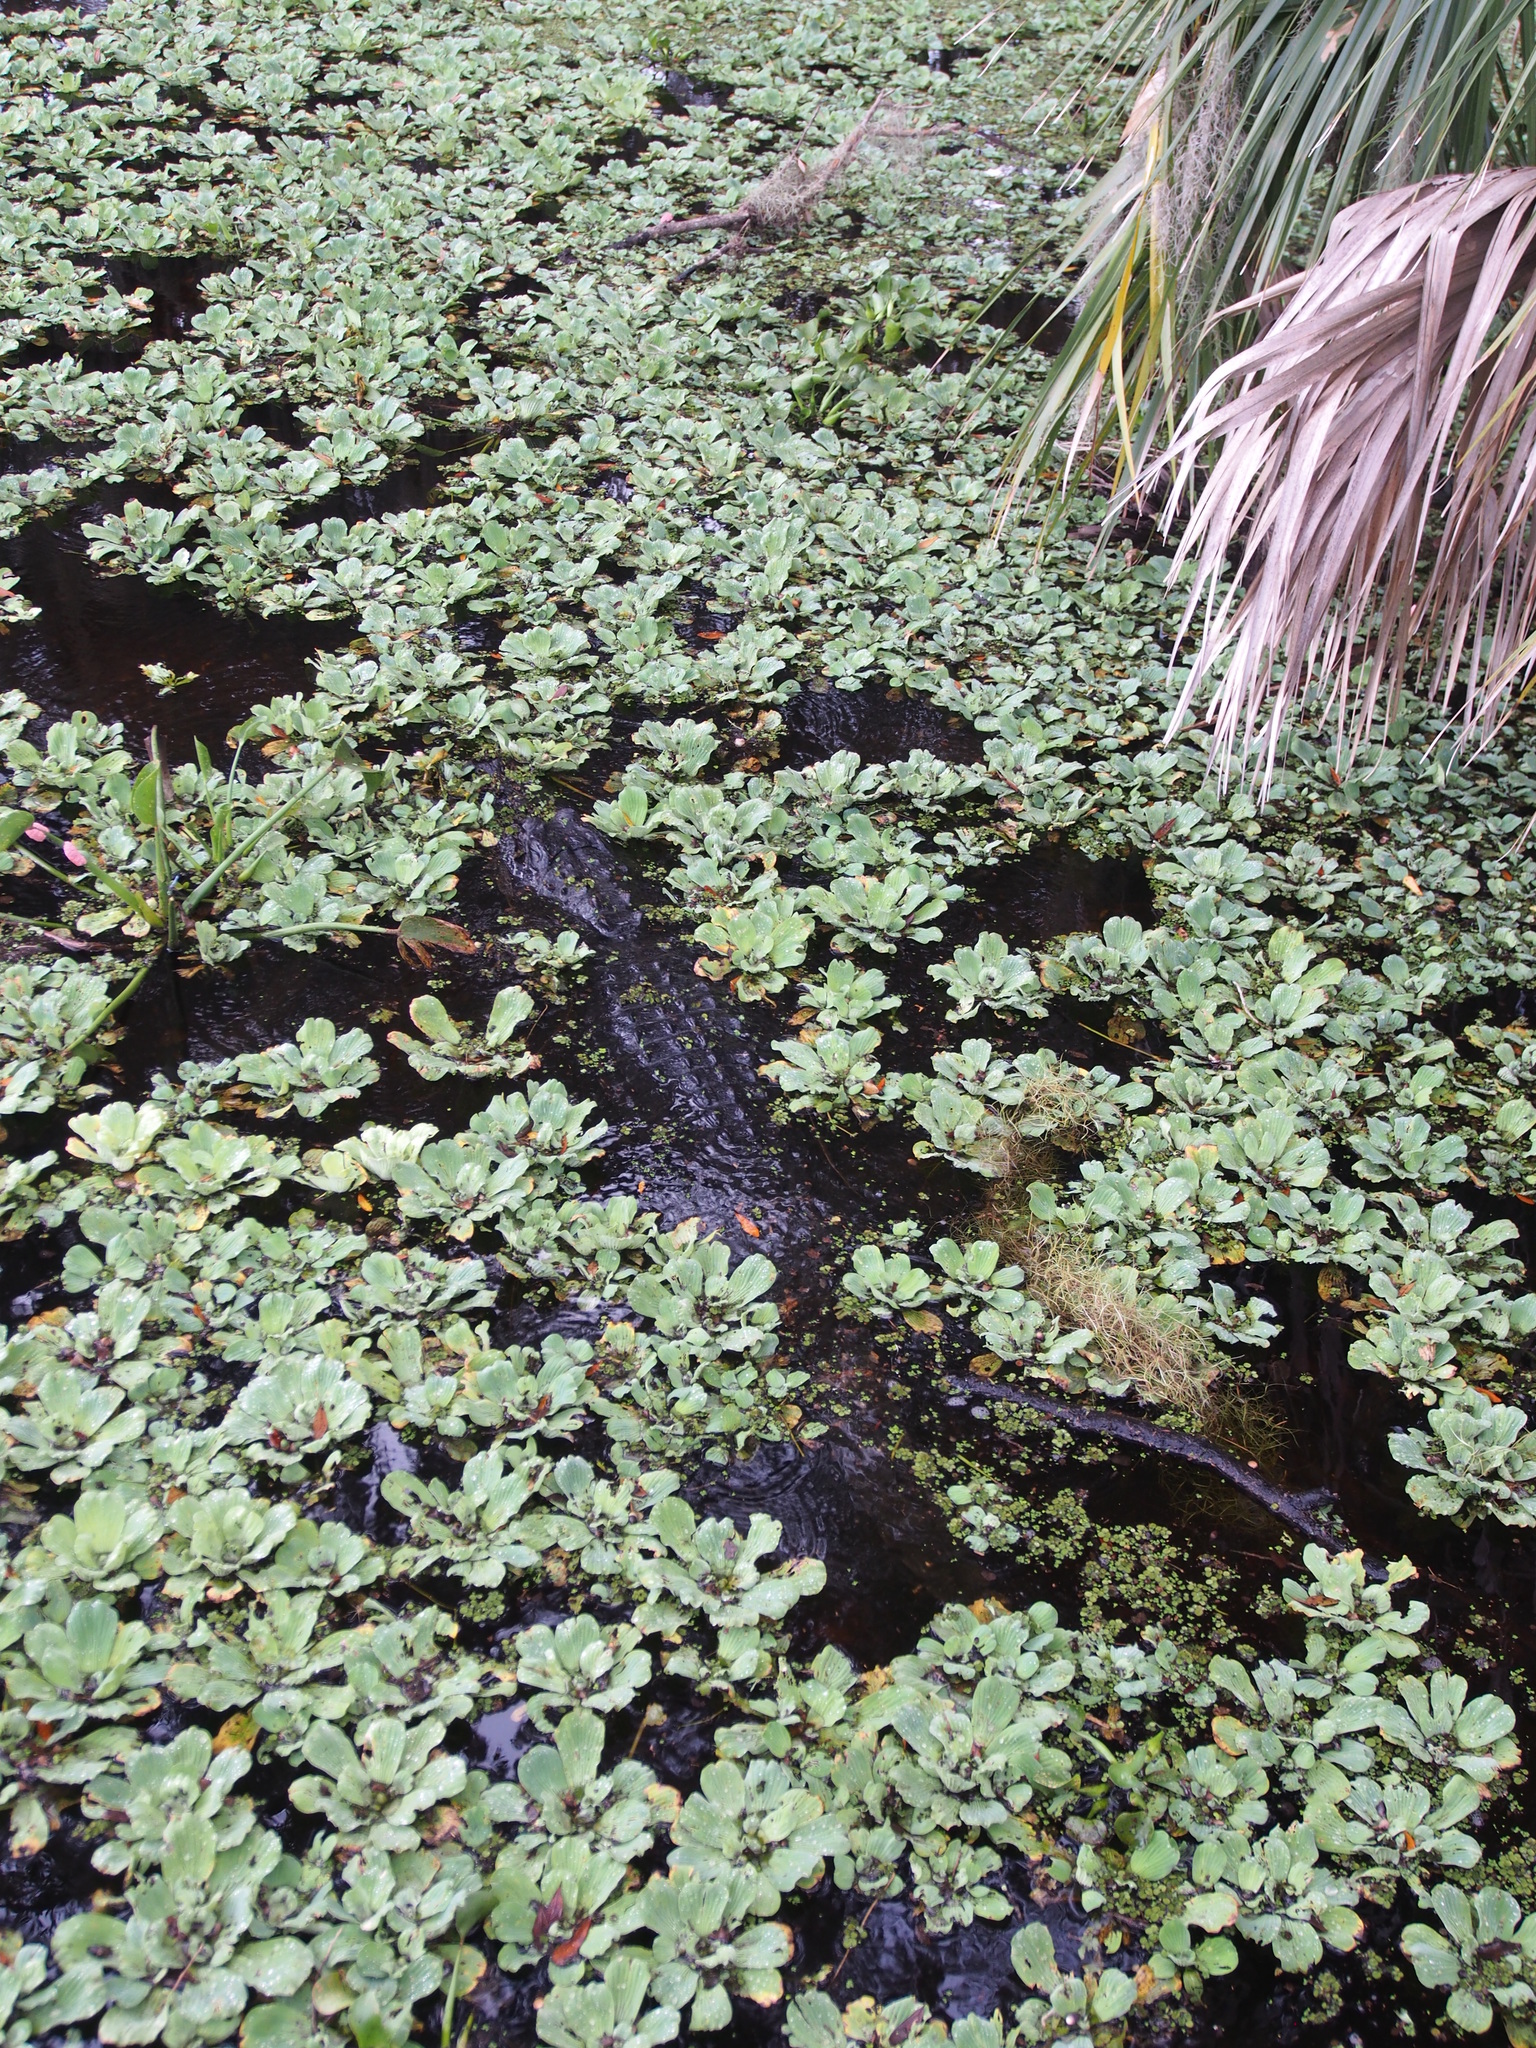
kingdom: Animalia
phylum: Chordata
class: Crocodylia
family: Alligatoridae
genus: Alligator
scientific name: Alligator mississippiensis
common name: American alligator
